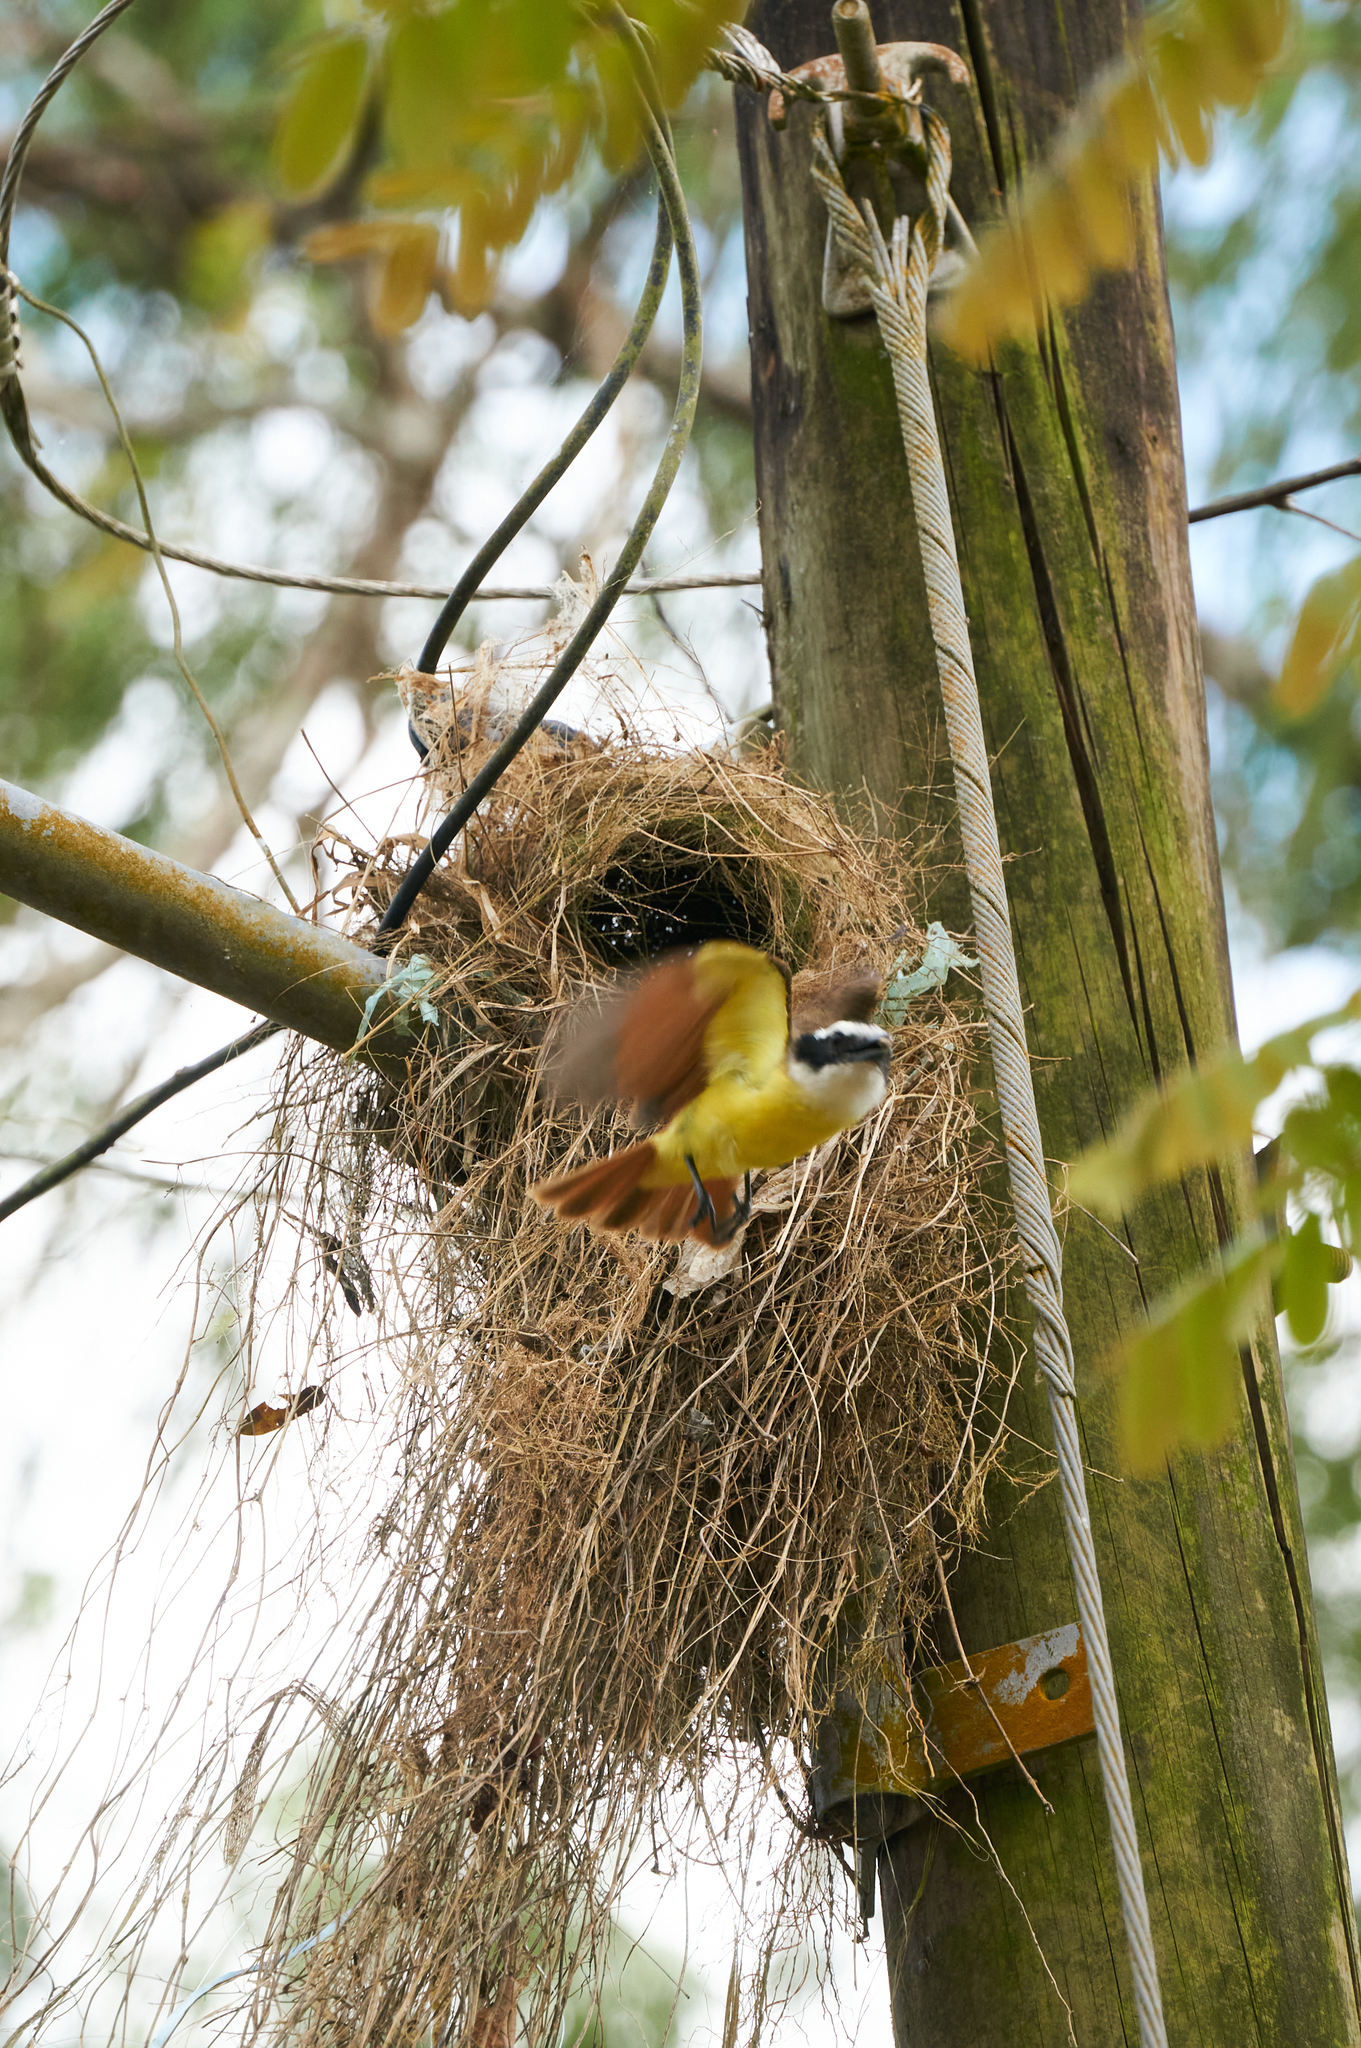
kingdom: Animalia
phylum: Chordata
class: Aves
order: Passeriformes
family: Tyrannidae
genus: Pitangus
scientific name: Pitangus sulphuratus
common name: Great kiskadee
